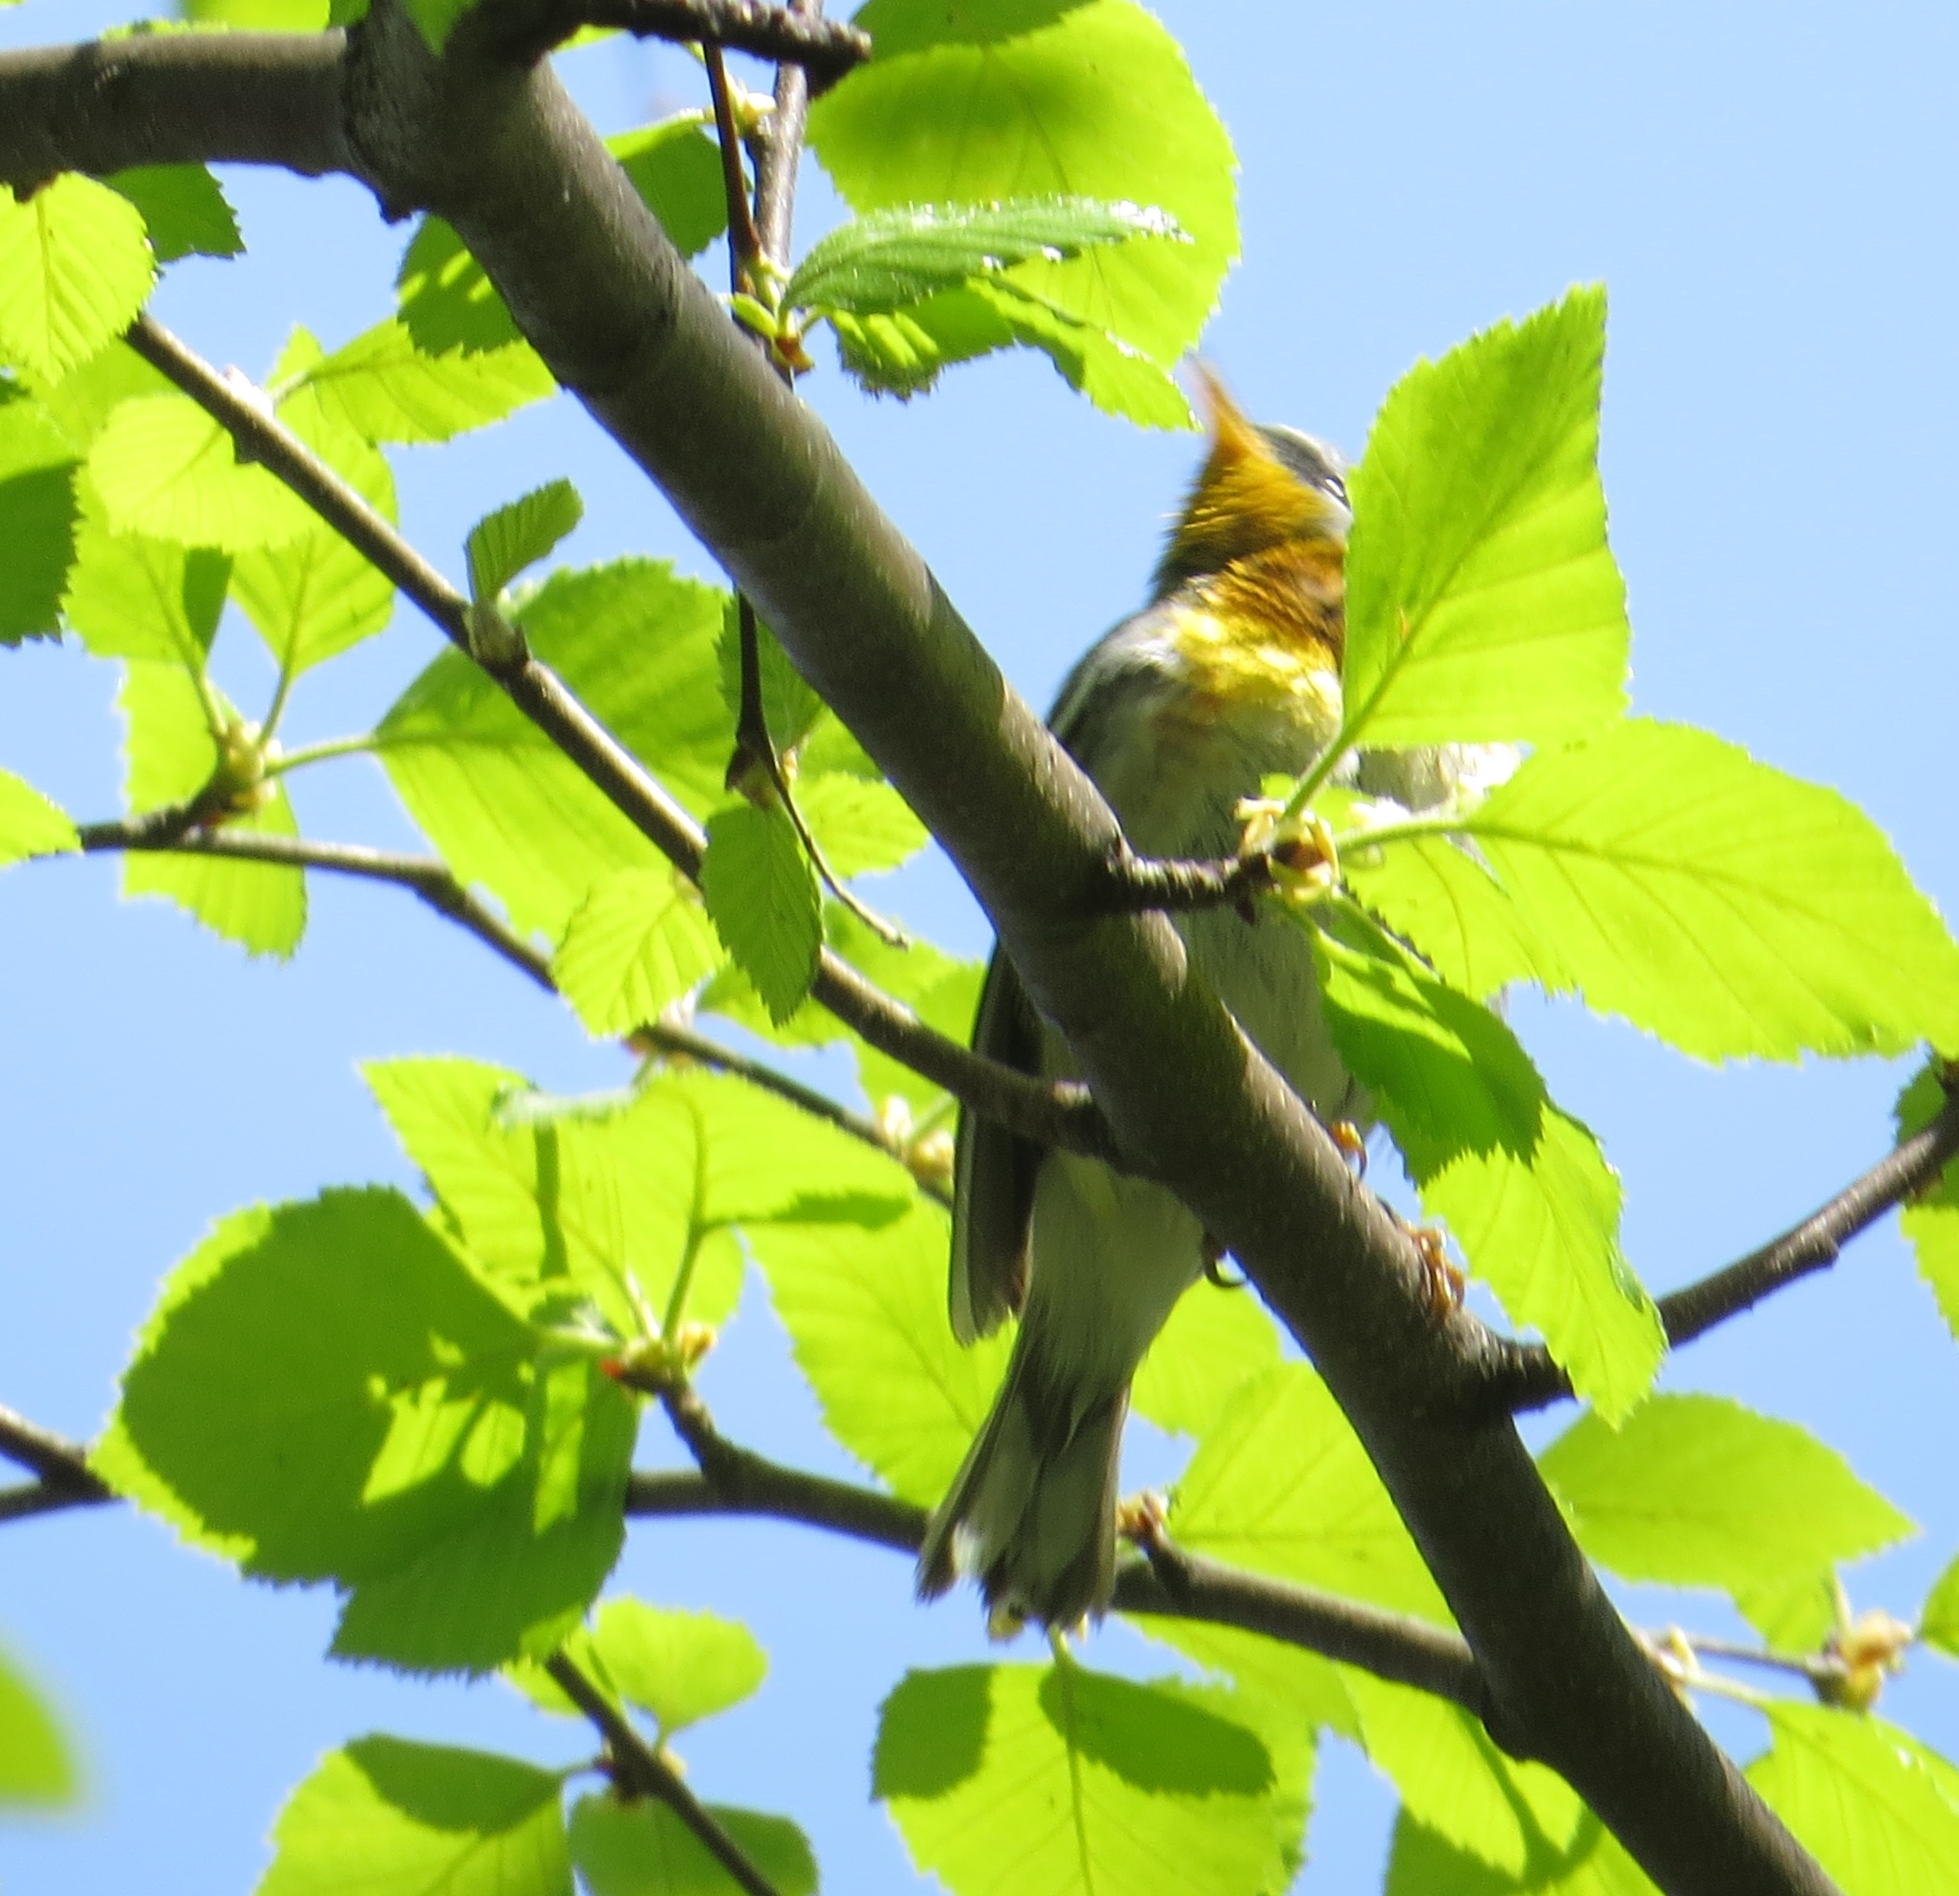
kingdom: Animalia
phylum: Chordata
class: Aves
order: Passeriformes
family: Parulidae
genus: Setophaga
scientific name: Setophaga americana
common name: Northern parula
